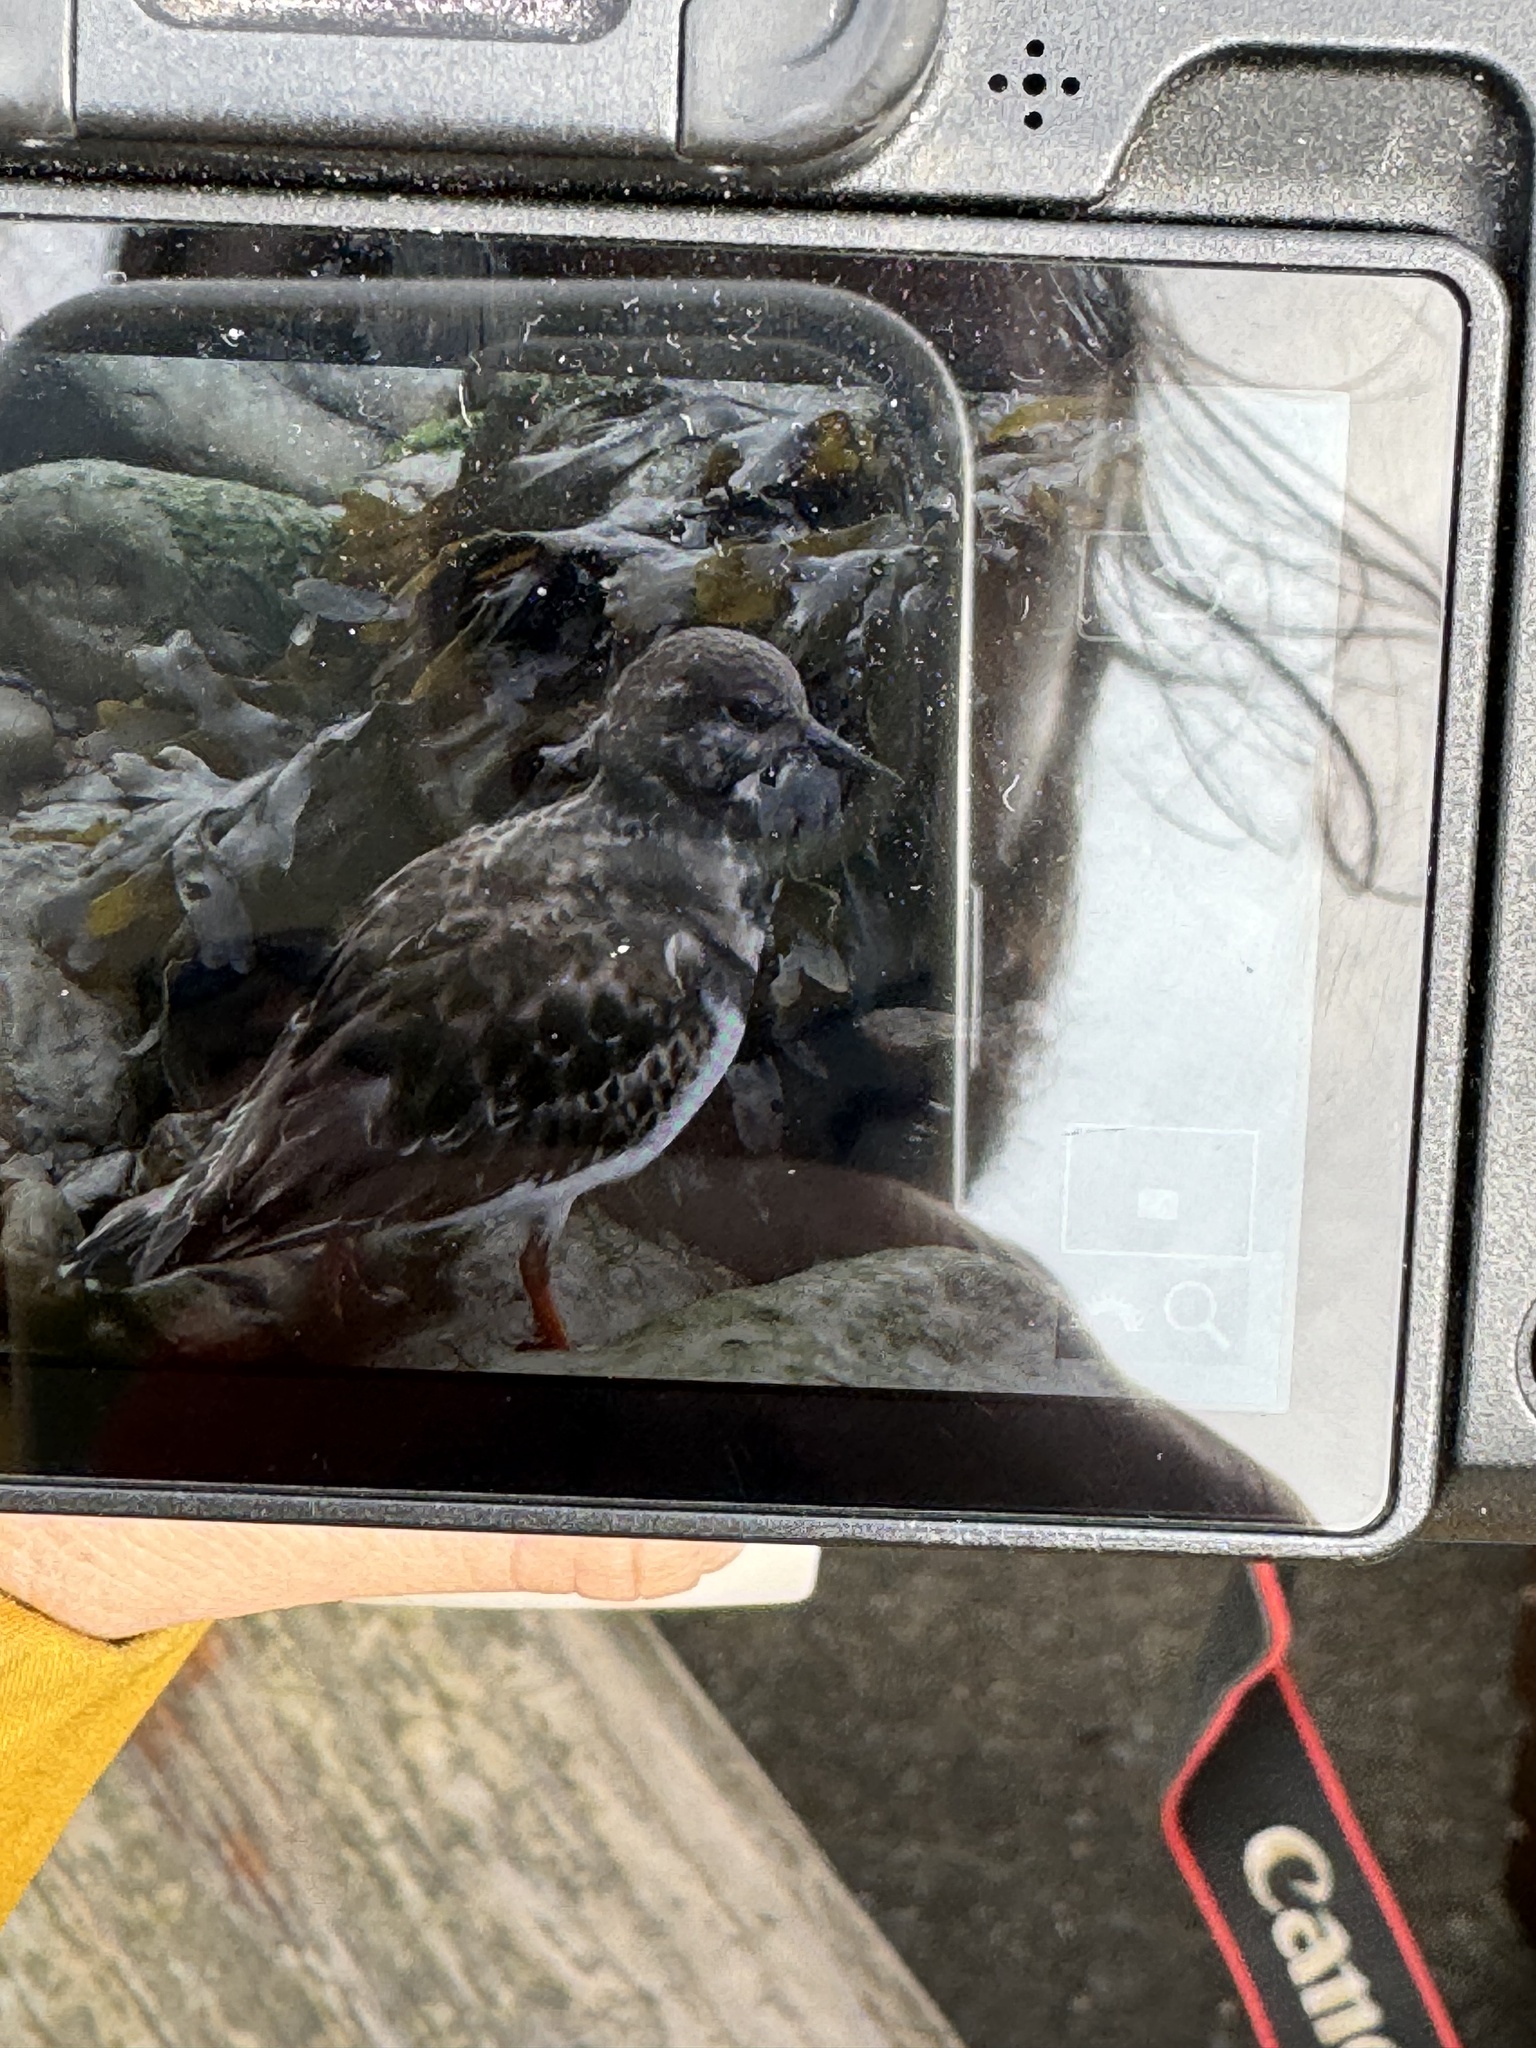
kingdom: Animalia
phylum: Chordata
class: Aves
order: Charadriiformes
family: Scolopacidae
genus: Arenaria
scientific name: Arenaria interpres
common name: Ruddy turnstone
